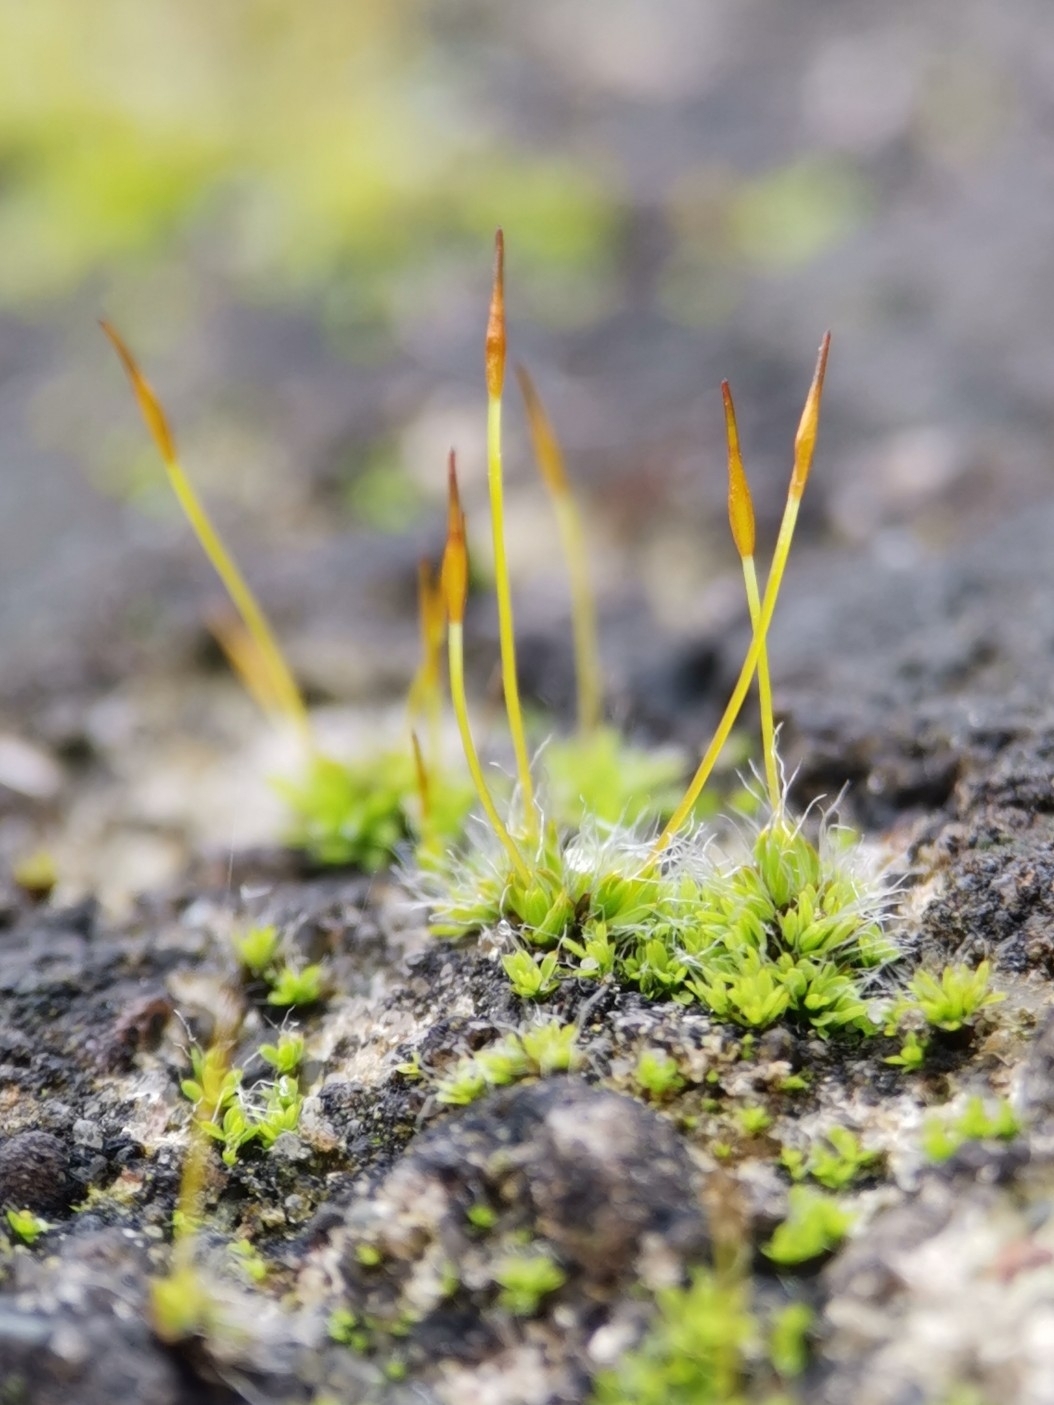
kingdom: Plantae
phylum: Bryophyta
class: Bryopsida
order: Pottiales
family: Pottiaceae
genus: Tortula
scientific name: Tortula muralis
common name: Wall screw-moss
